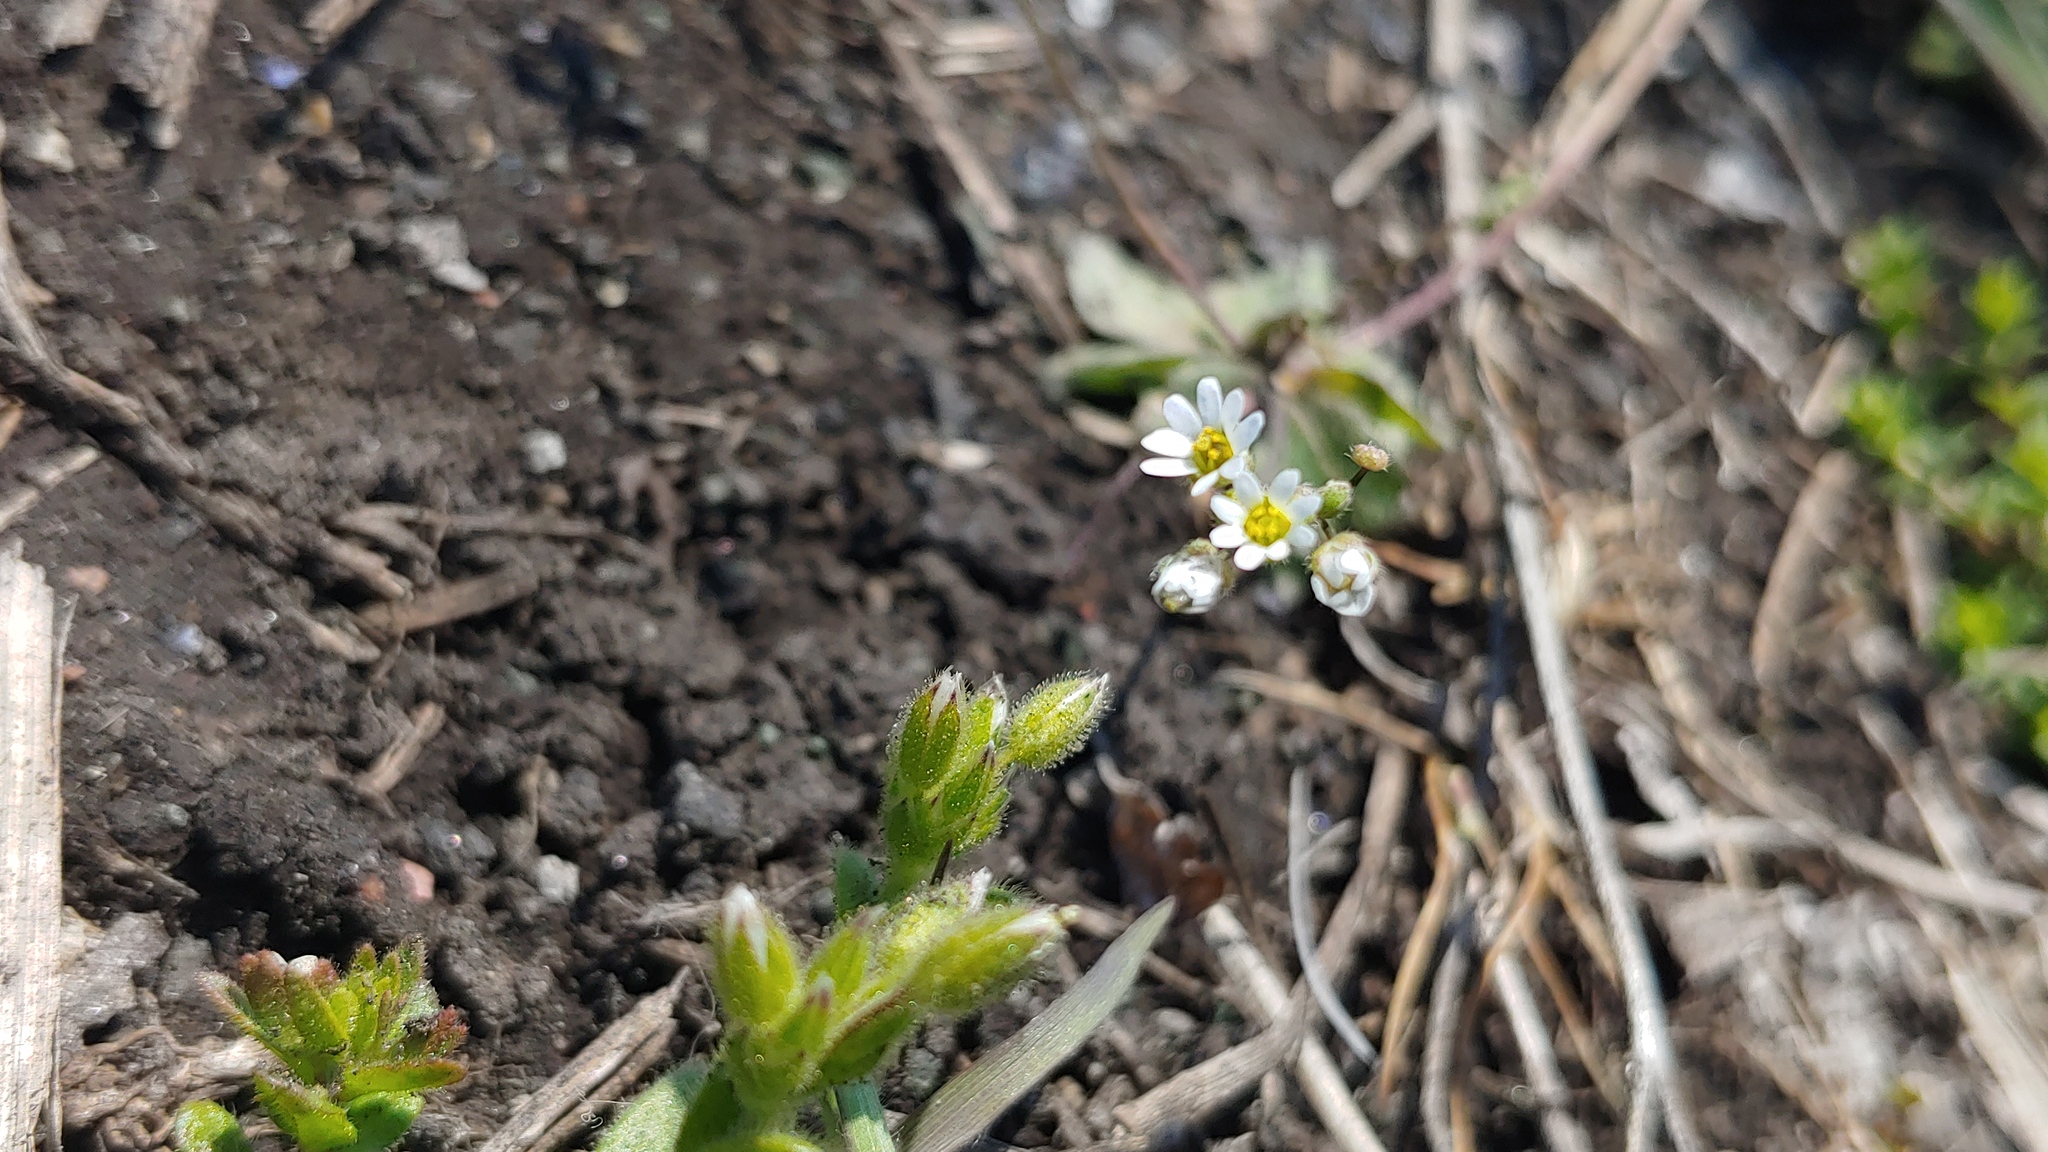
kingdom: Plantae
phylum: Tracheophyta
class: Magnoliopsida
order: Brassicales
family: Brassicaceae
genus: Draba
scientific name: Draba verna
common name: Spring draba
